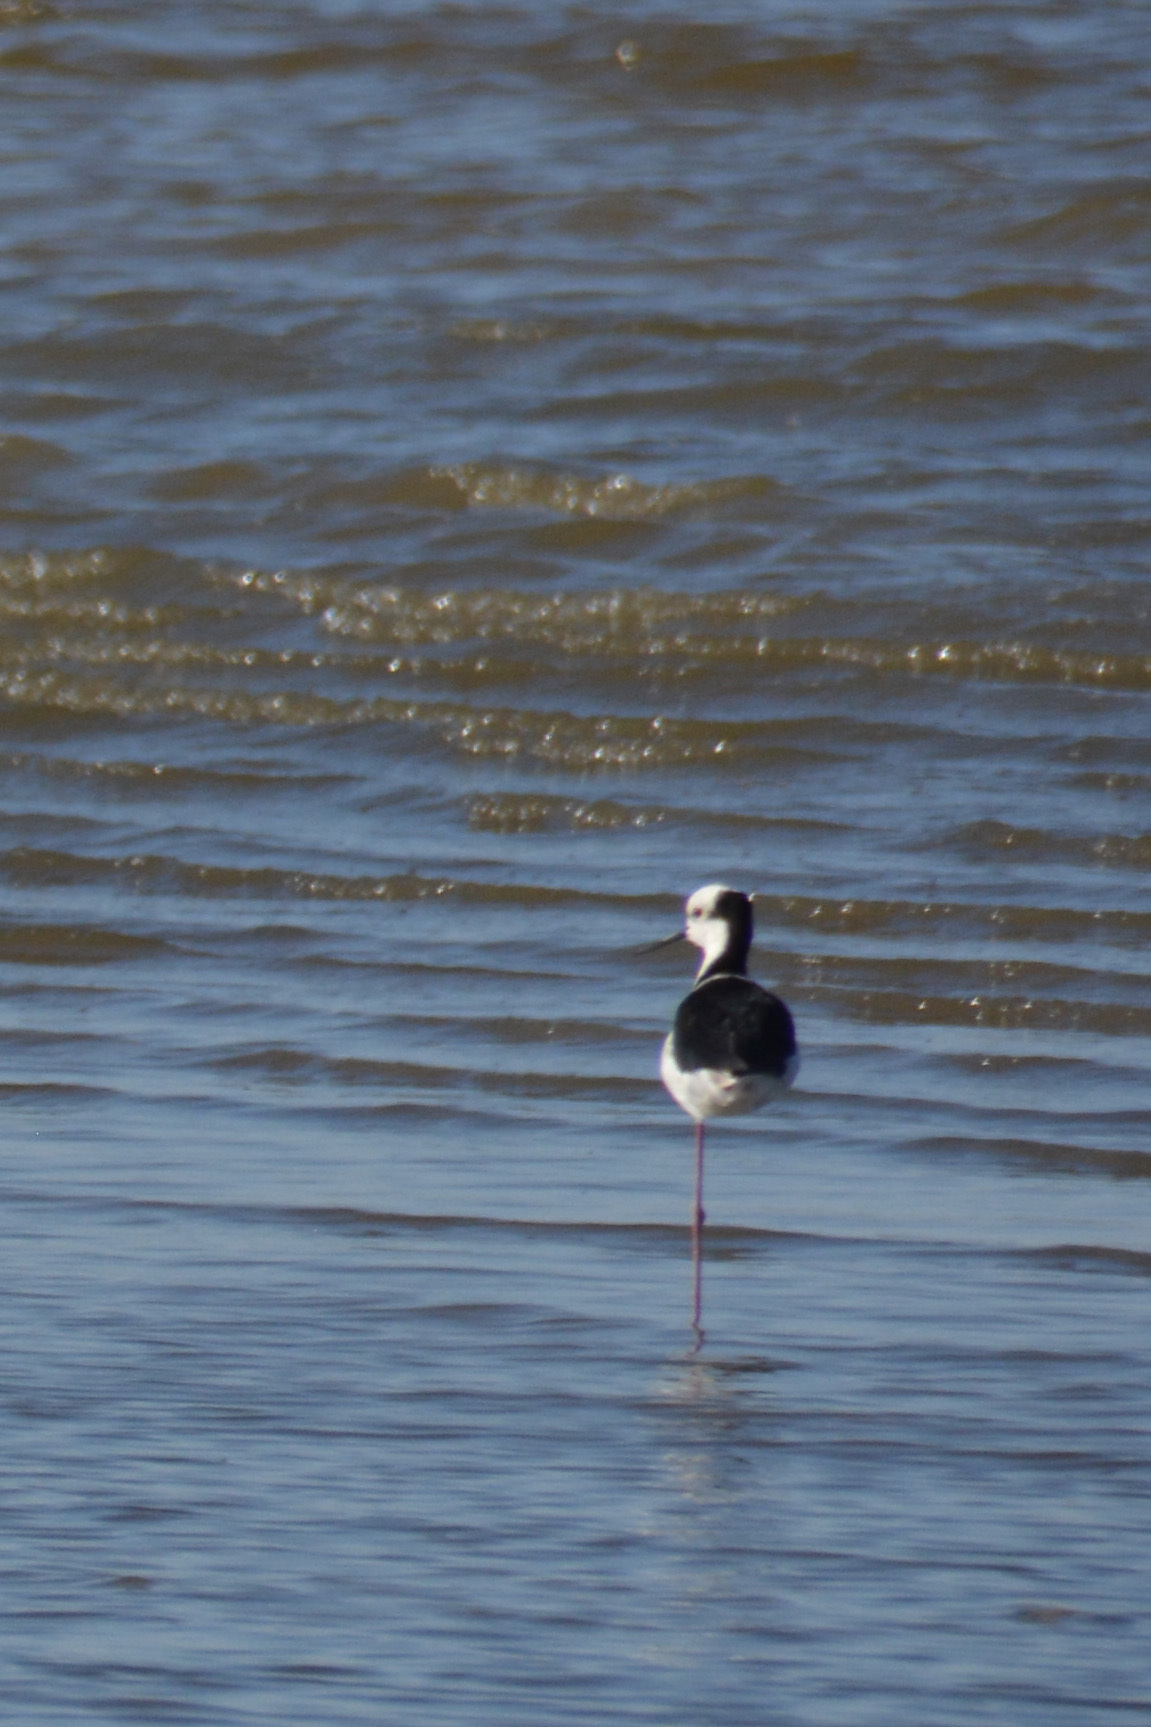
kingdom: Animalia
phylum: Chordata
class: Aves
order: Charadriiformes
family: Recurvirostridae
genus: Himantopus
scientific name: Himantopus mexicanus
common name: Black-necked stilt
